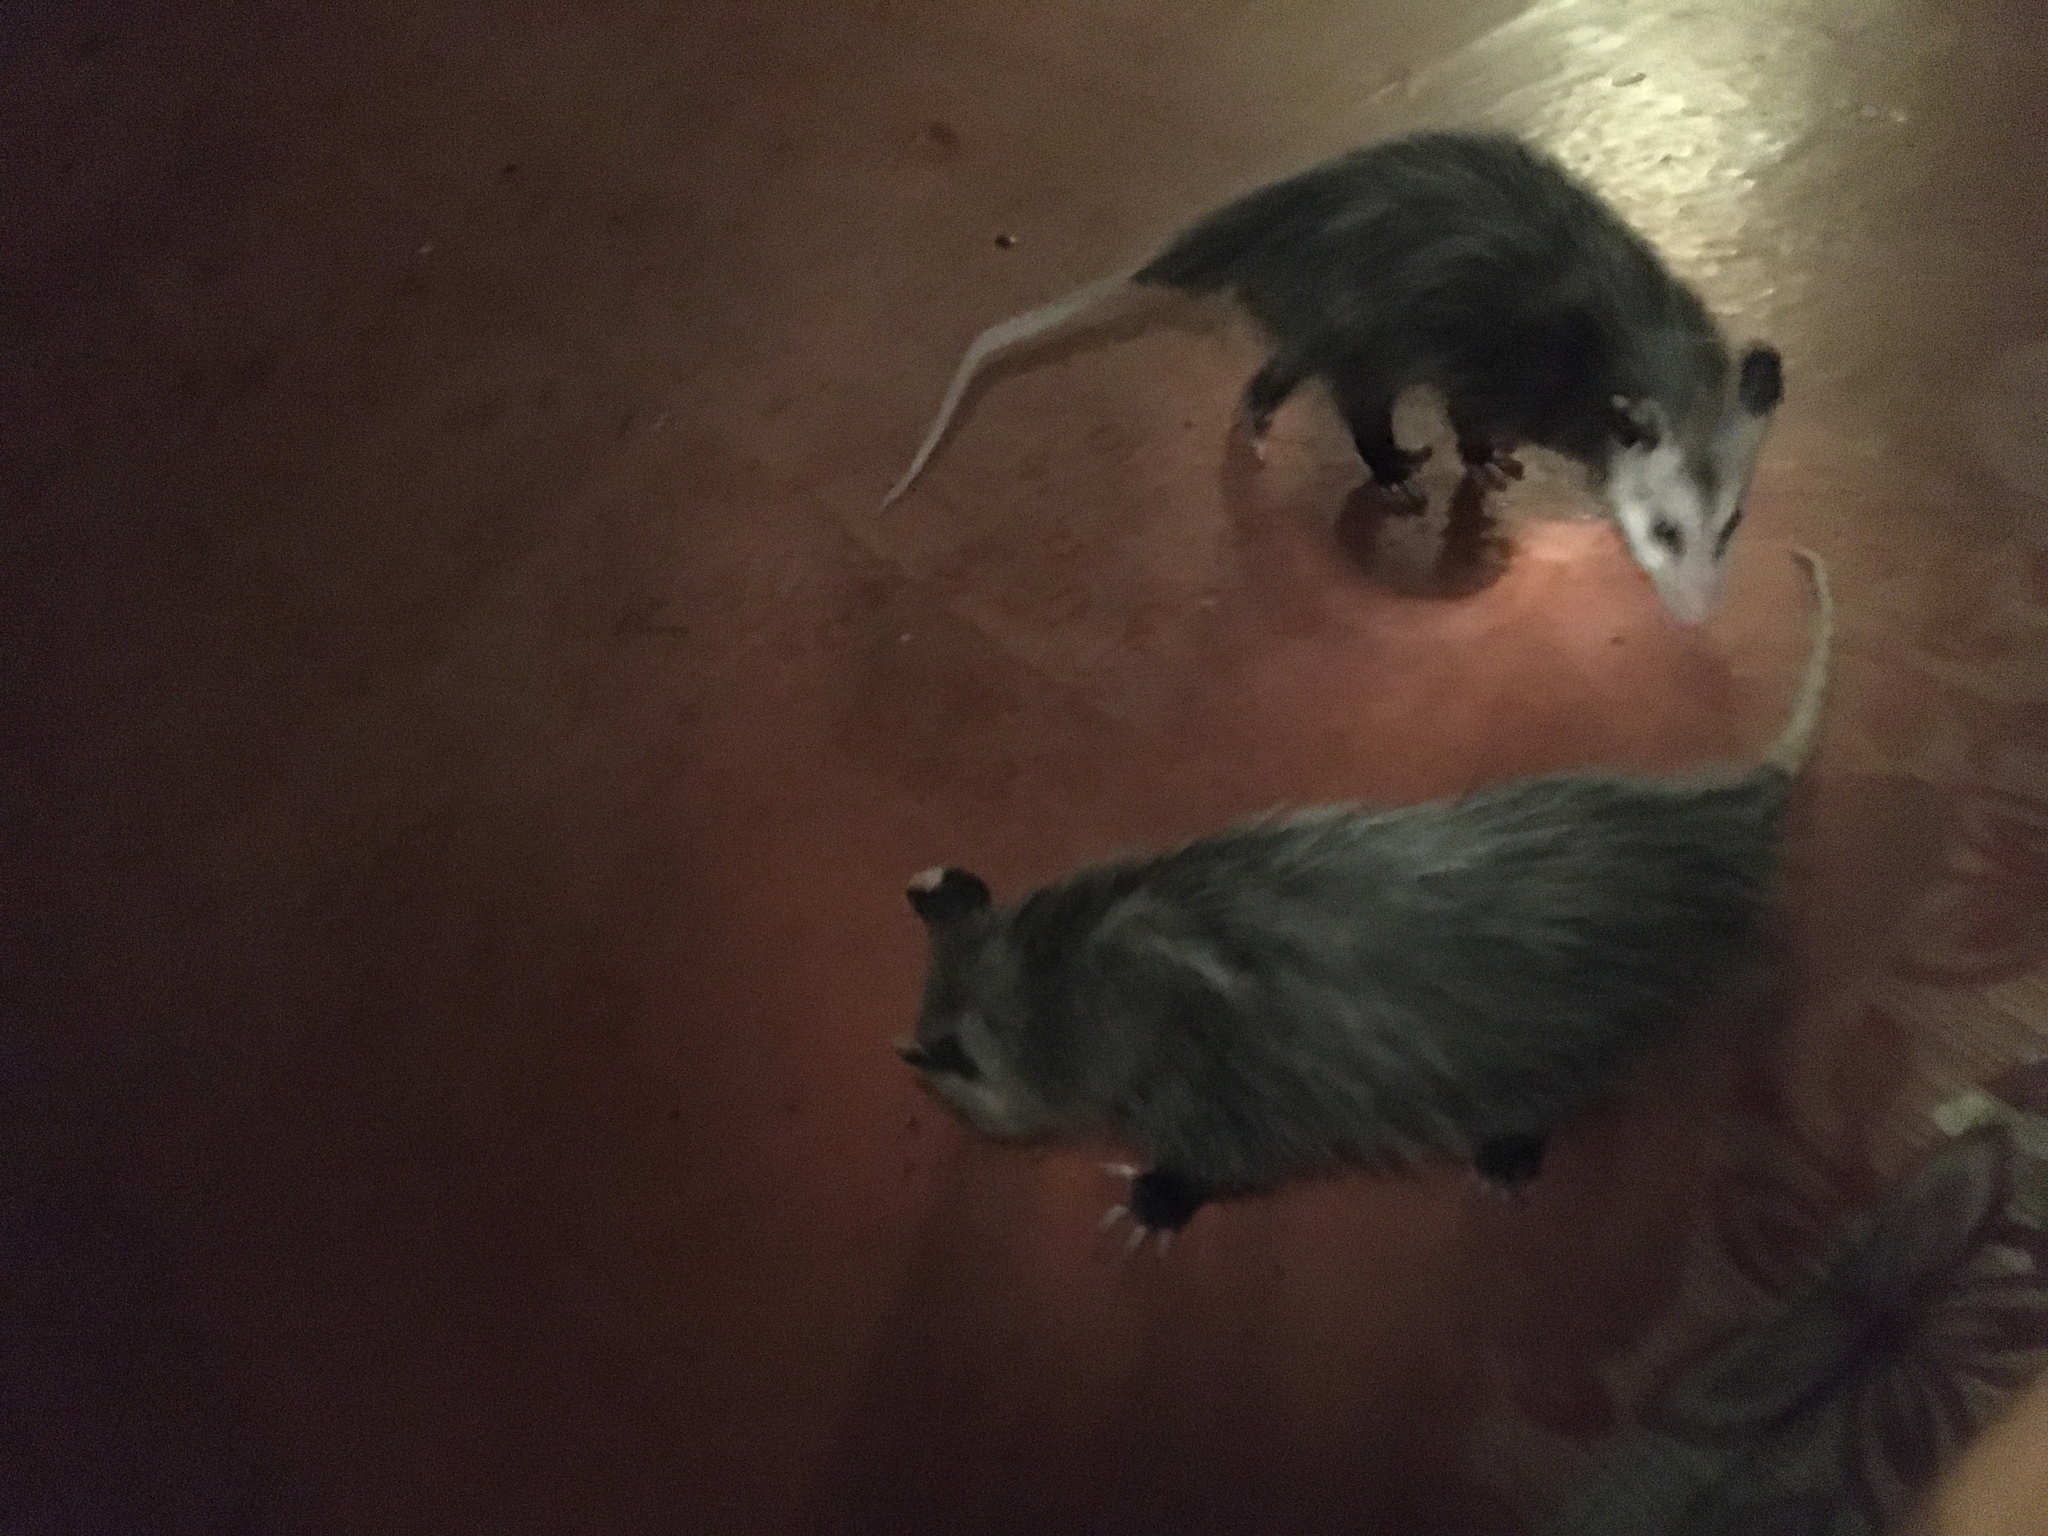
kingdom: Animalia
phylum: Chordata
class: Mammalia
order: Didelphimorphia
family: Didelphidae
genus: Didelphis
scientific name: Didelphis virginiana
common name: Virginia opossum
